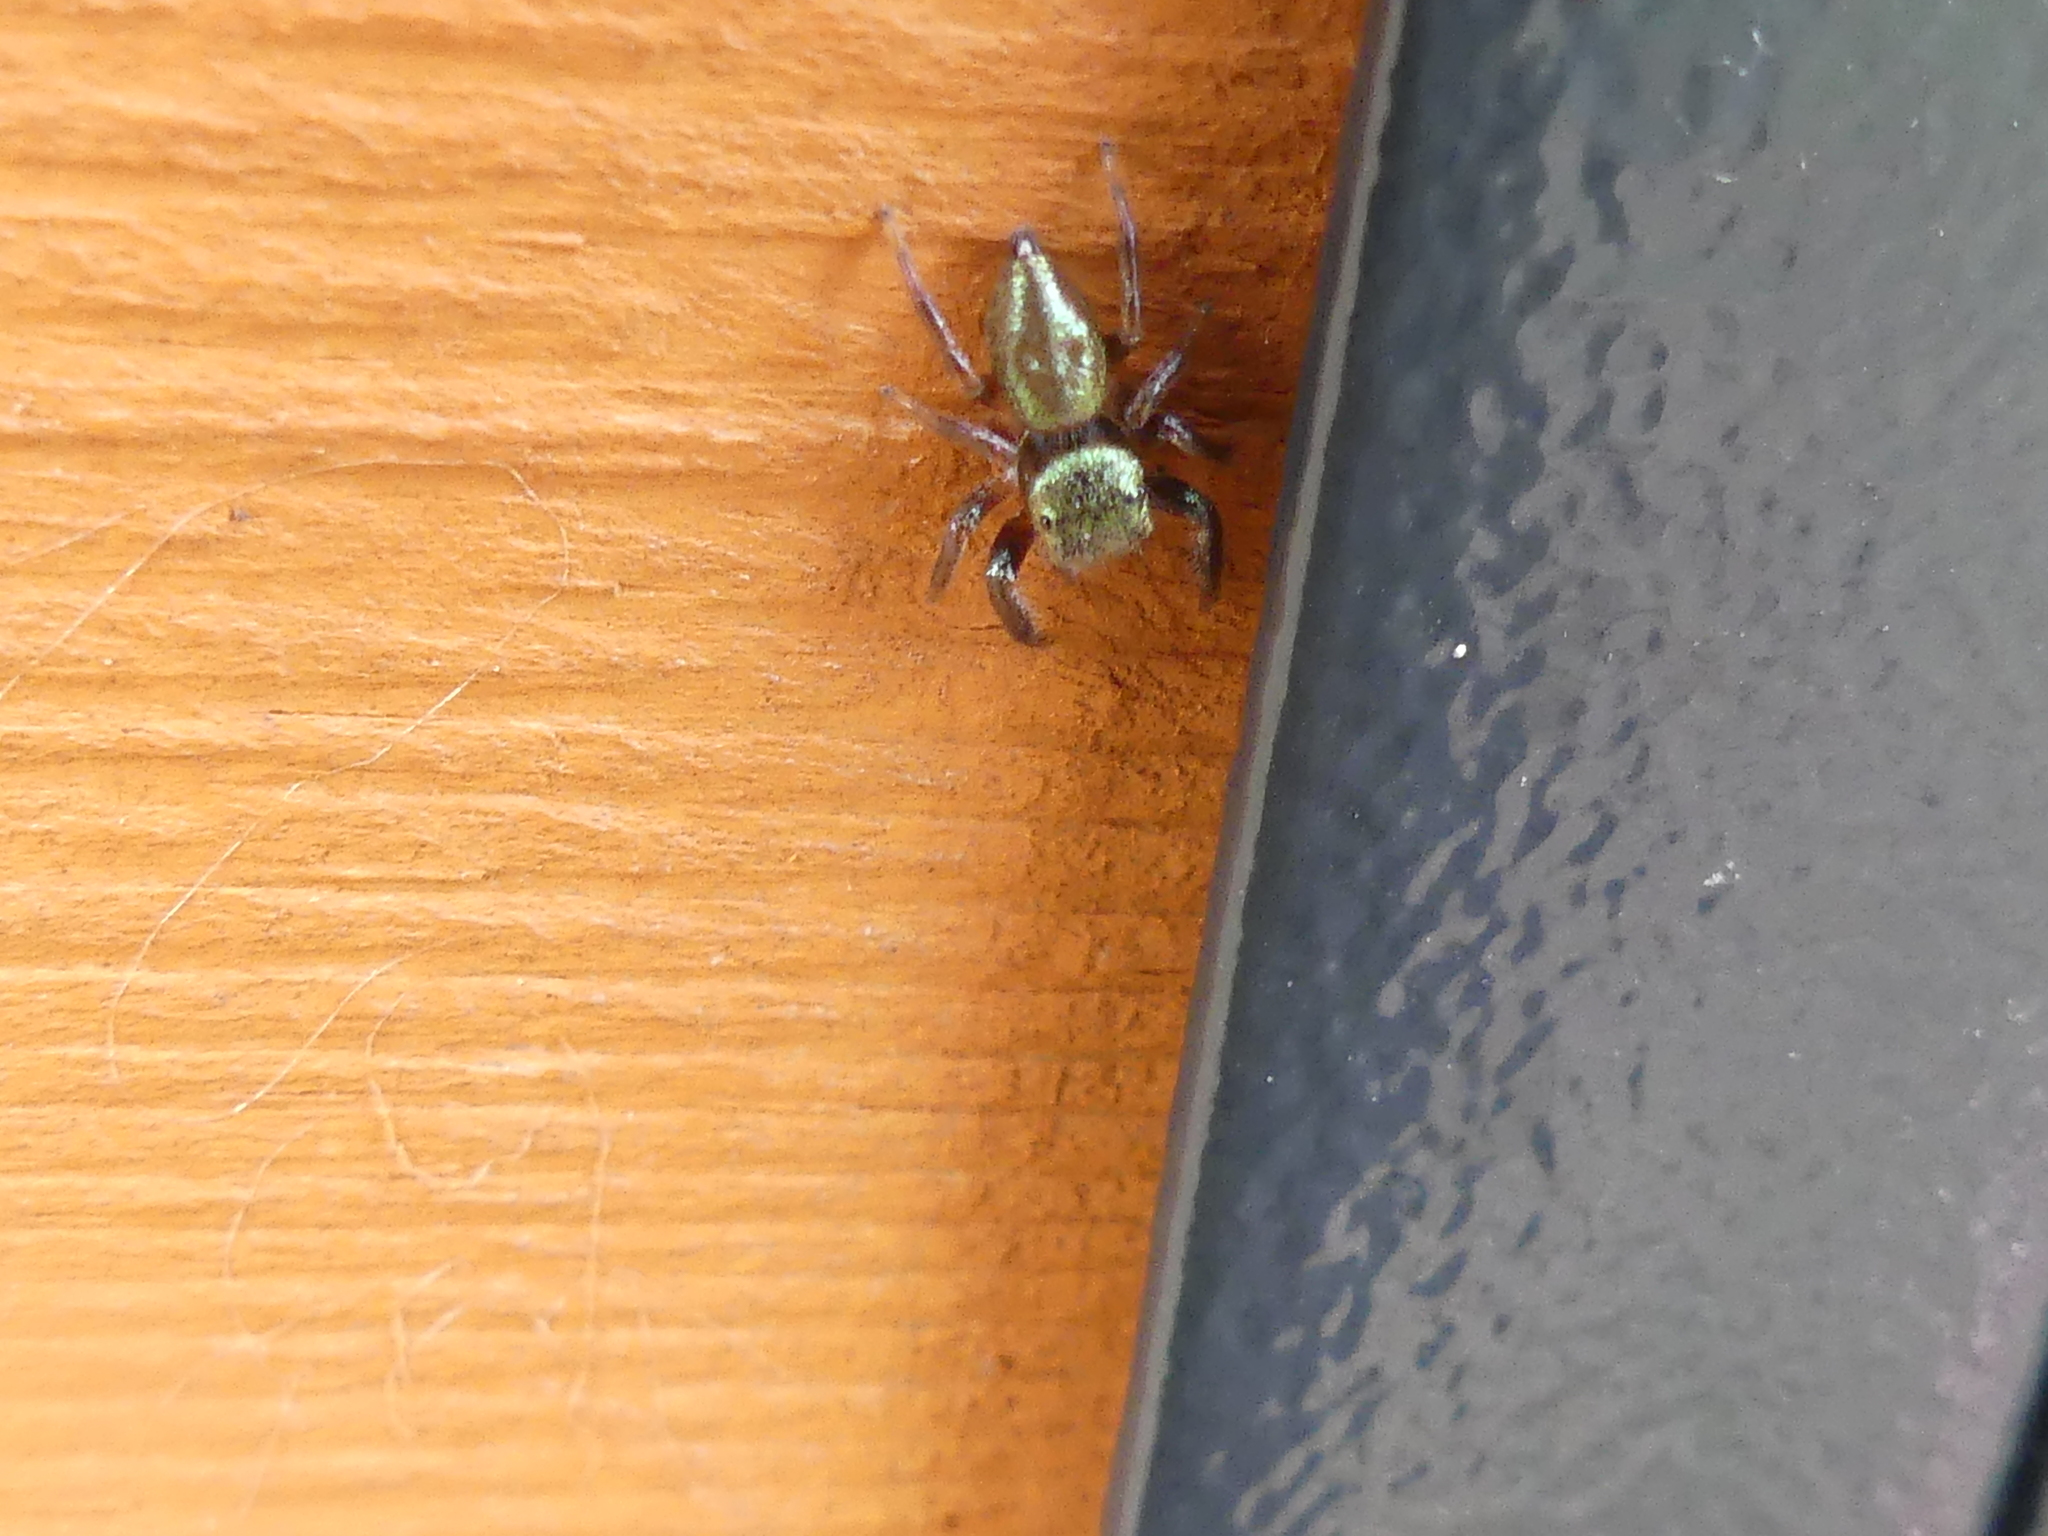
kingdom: Animalia
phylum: Arthropoda
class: Arachnida
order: Araneae
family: Salticidae
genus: Messua
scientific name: Messua limbata
